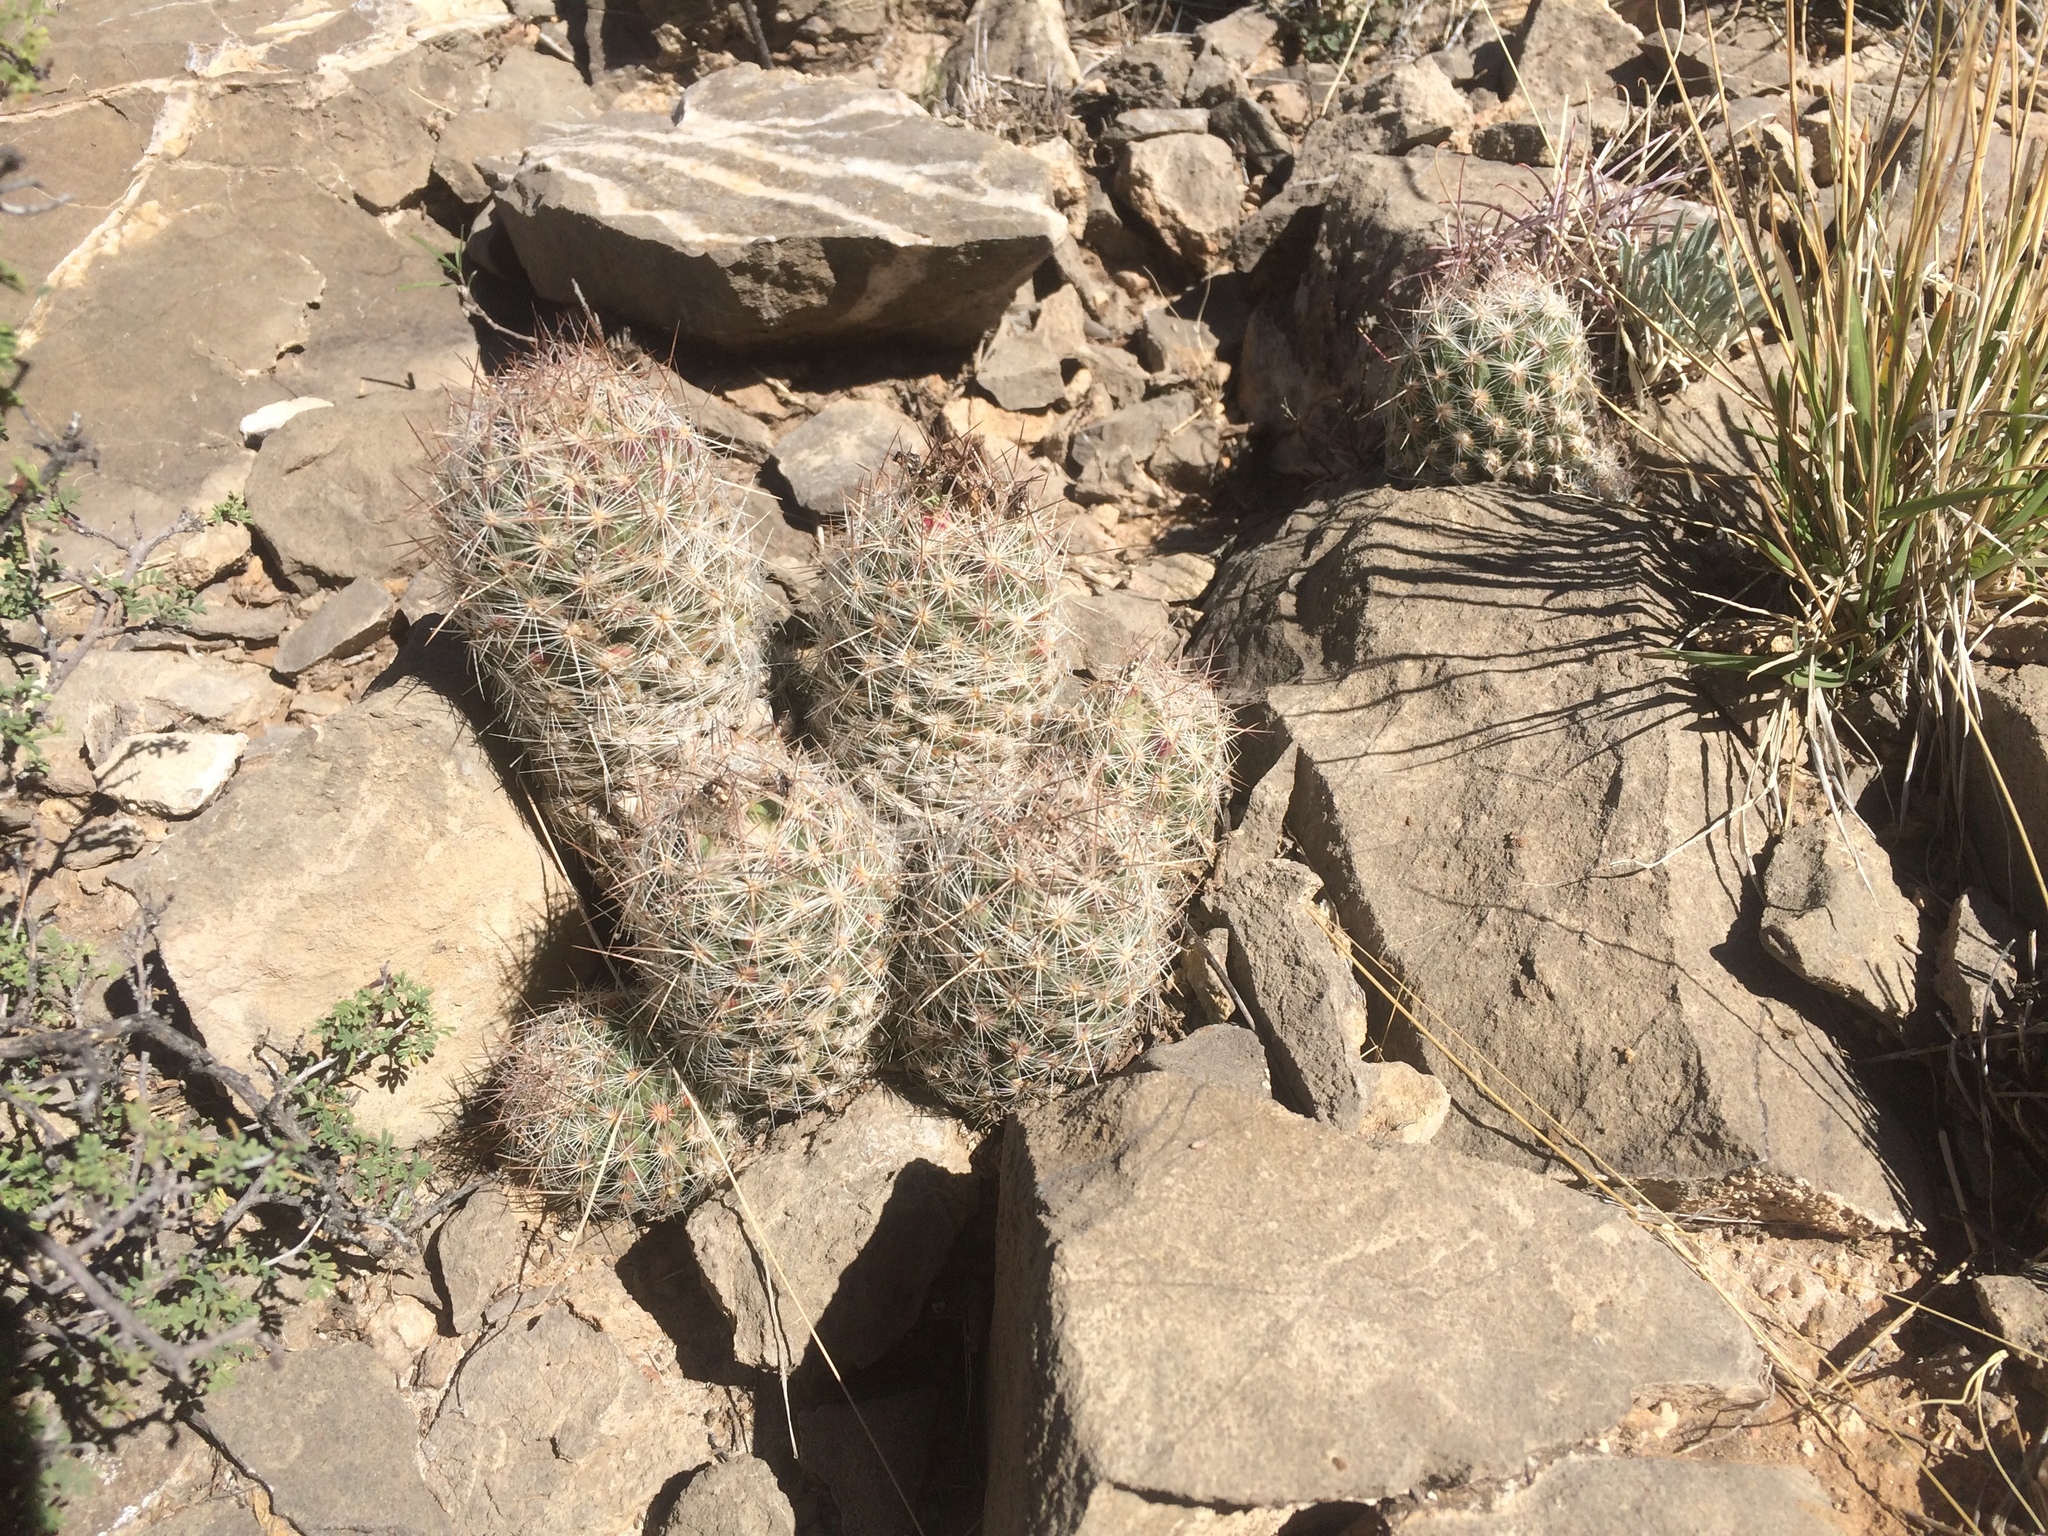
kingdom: Plantae
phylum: Tracheophyta
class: Magnoliopsida
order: Caryophyllales
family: Cactaceae
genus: Pelecyphora
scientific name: Pelecyphora tuberculosa
